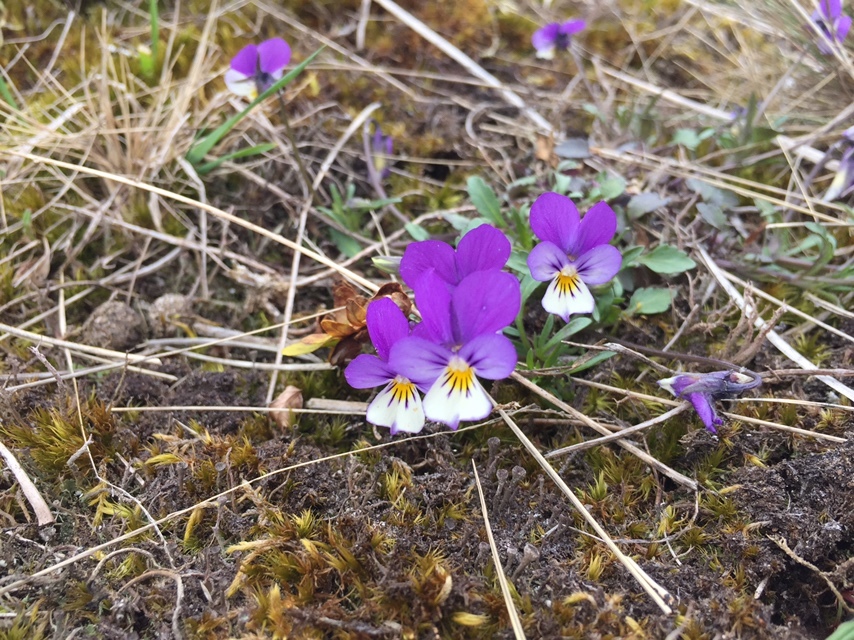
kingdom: Plantae
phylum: Tracheophyta
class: Magnoliopsida
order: Malpighiales
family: Violaceae
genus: Viola
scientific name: Viola tricolor
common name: Pansy
